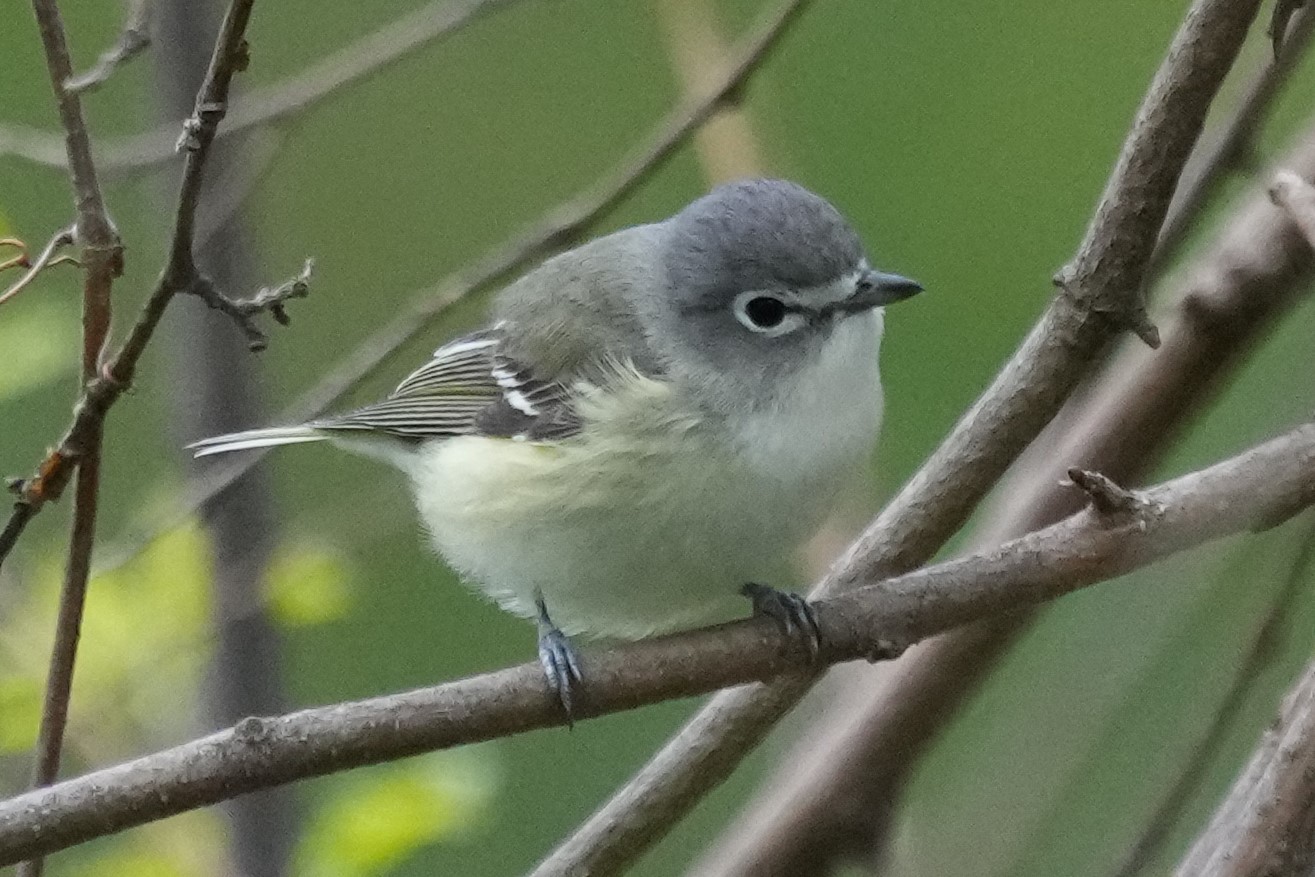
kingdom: Animalia
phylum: Chordata
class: Aves
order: Passeriformes
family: Vireonidae
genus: Vireo
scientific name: Vireo solitarius
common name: Blue-headed vireo
